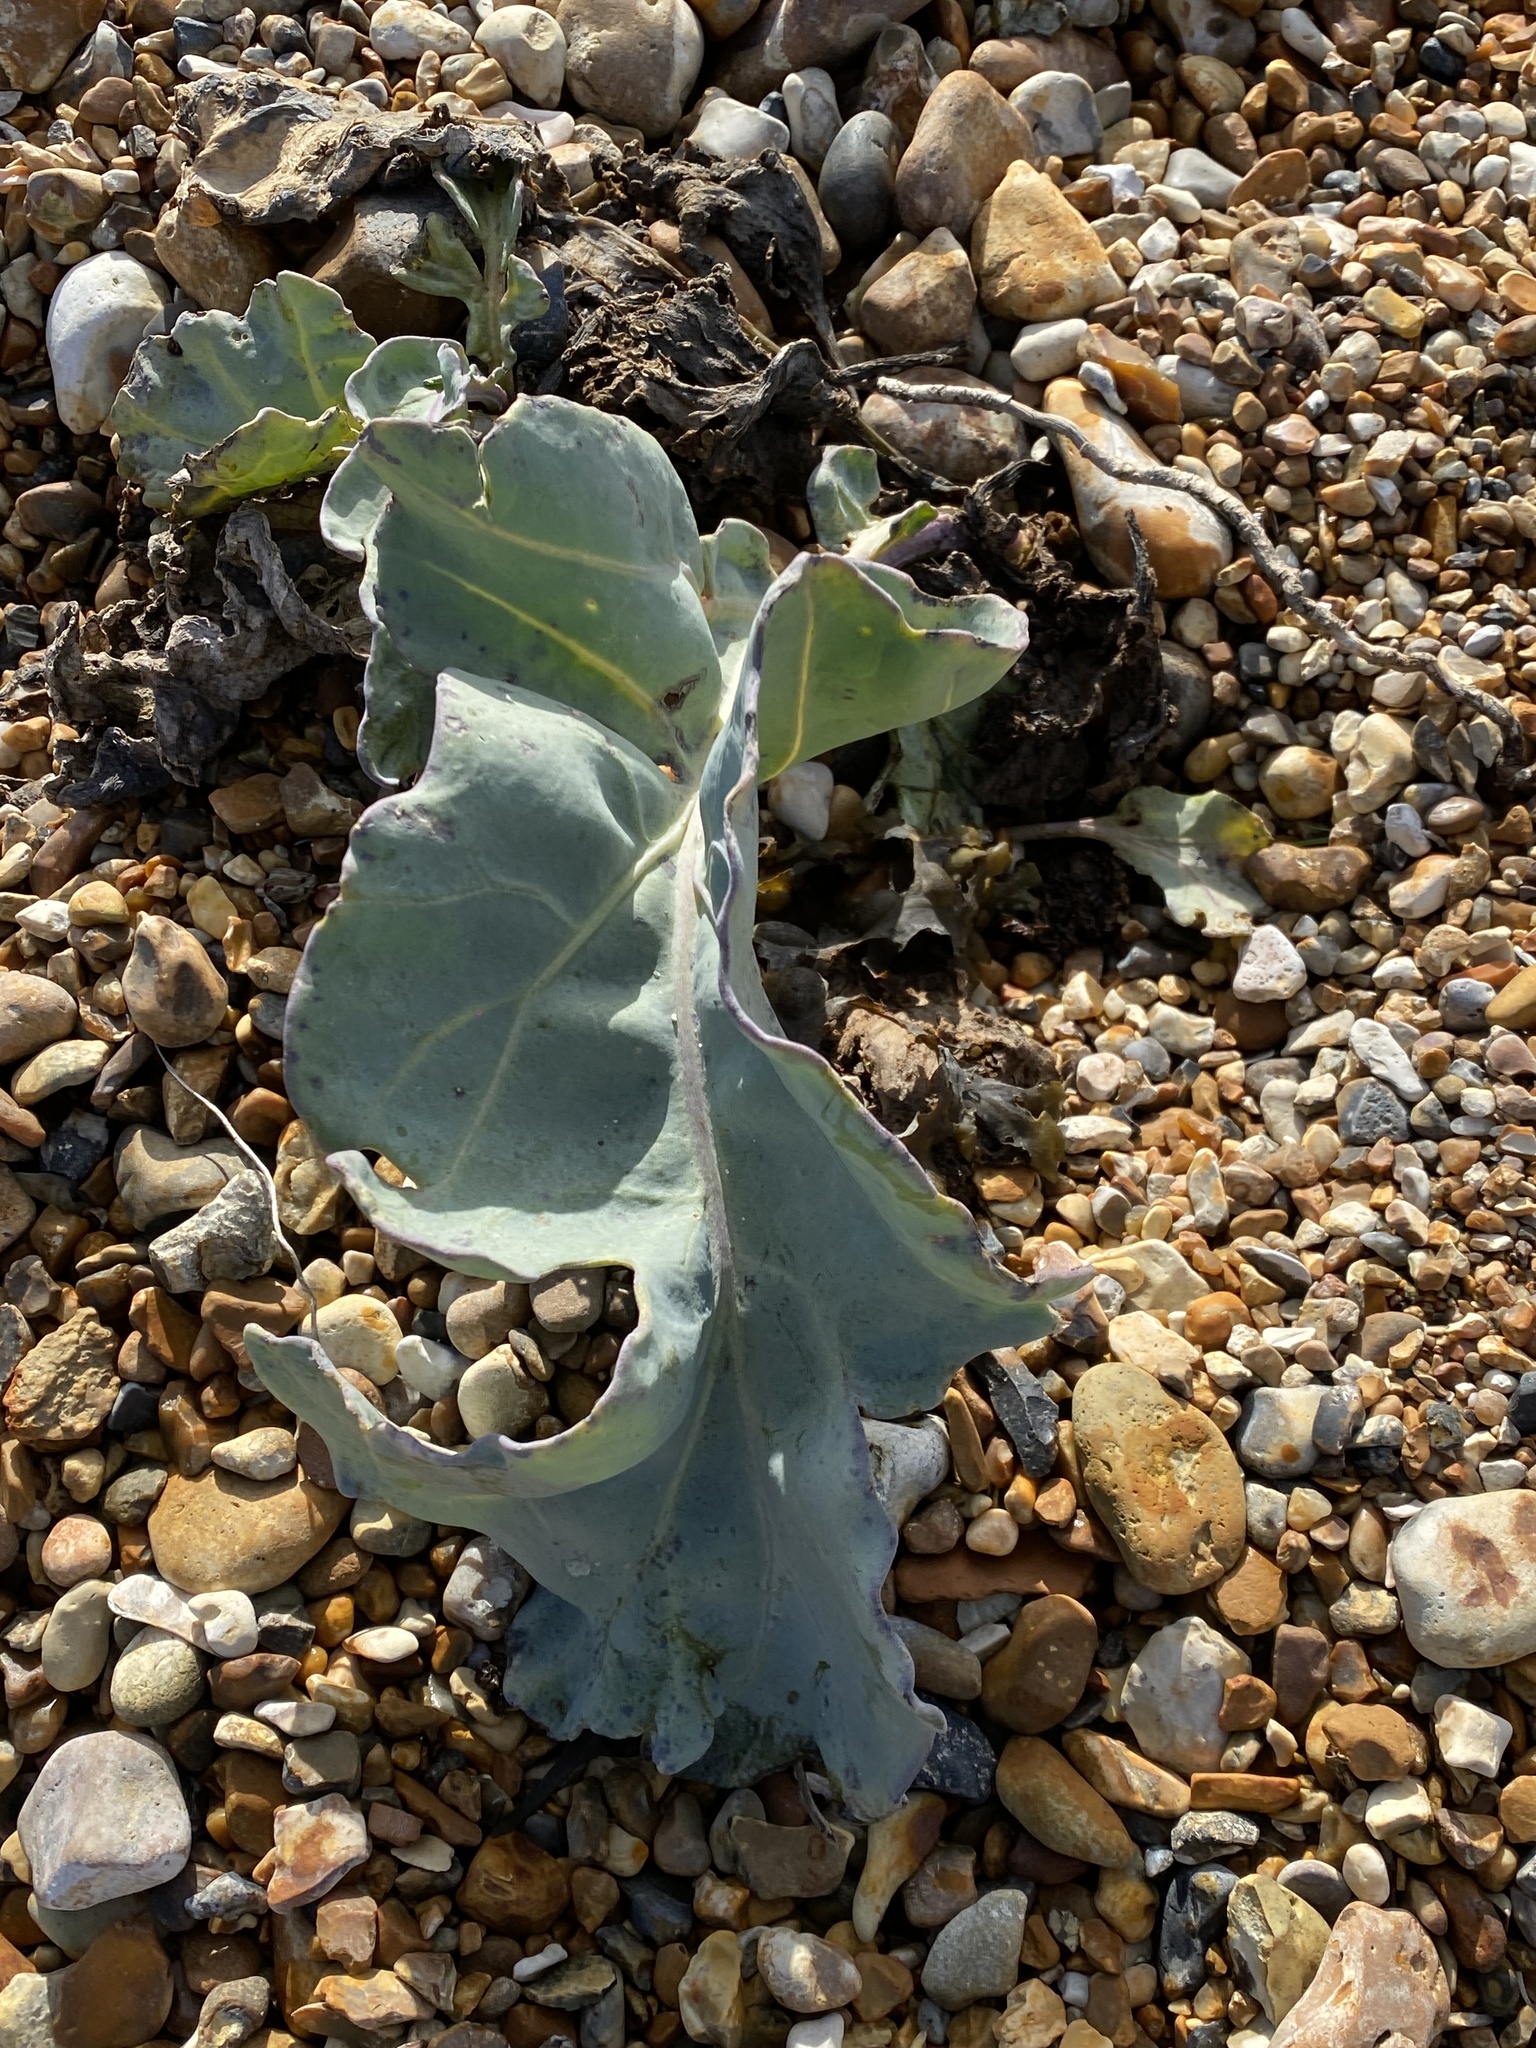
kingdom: Plantae
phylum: Tracheophyta
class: Magnoliopsida
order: Brassicales
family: Brassicaceae
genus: Crambe
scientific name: Crambe maritima
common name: Sea-kale
